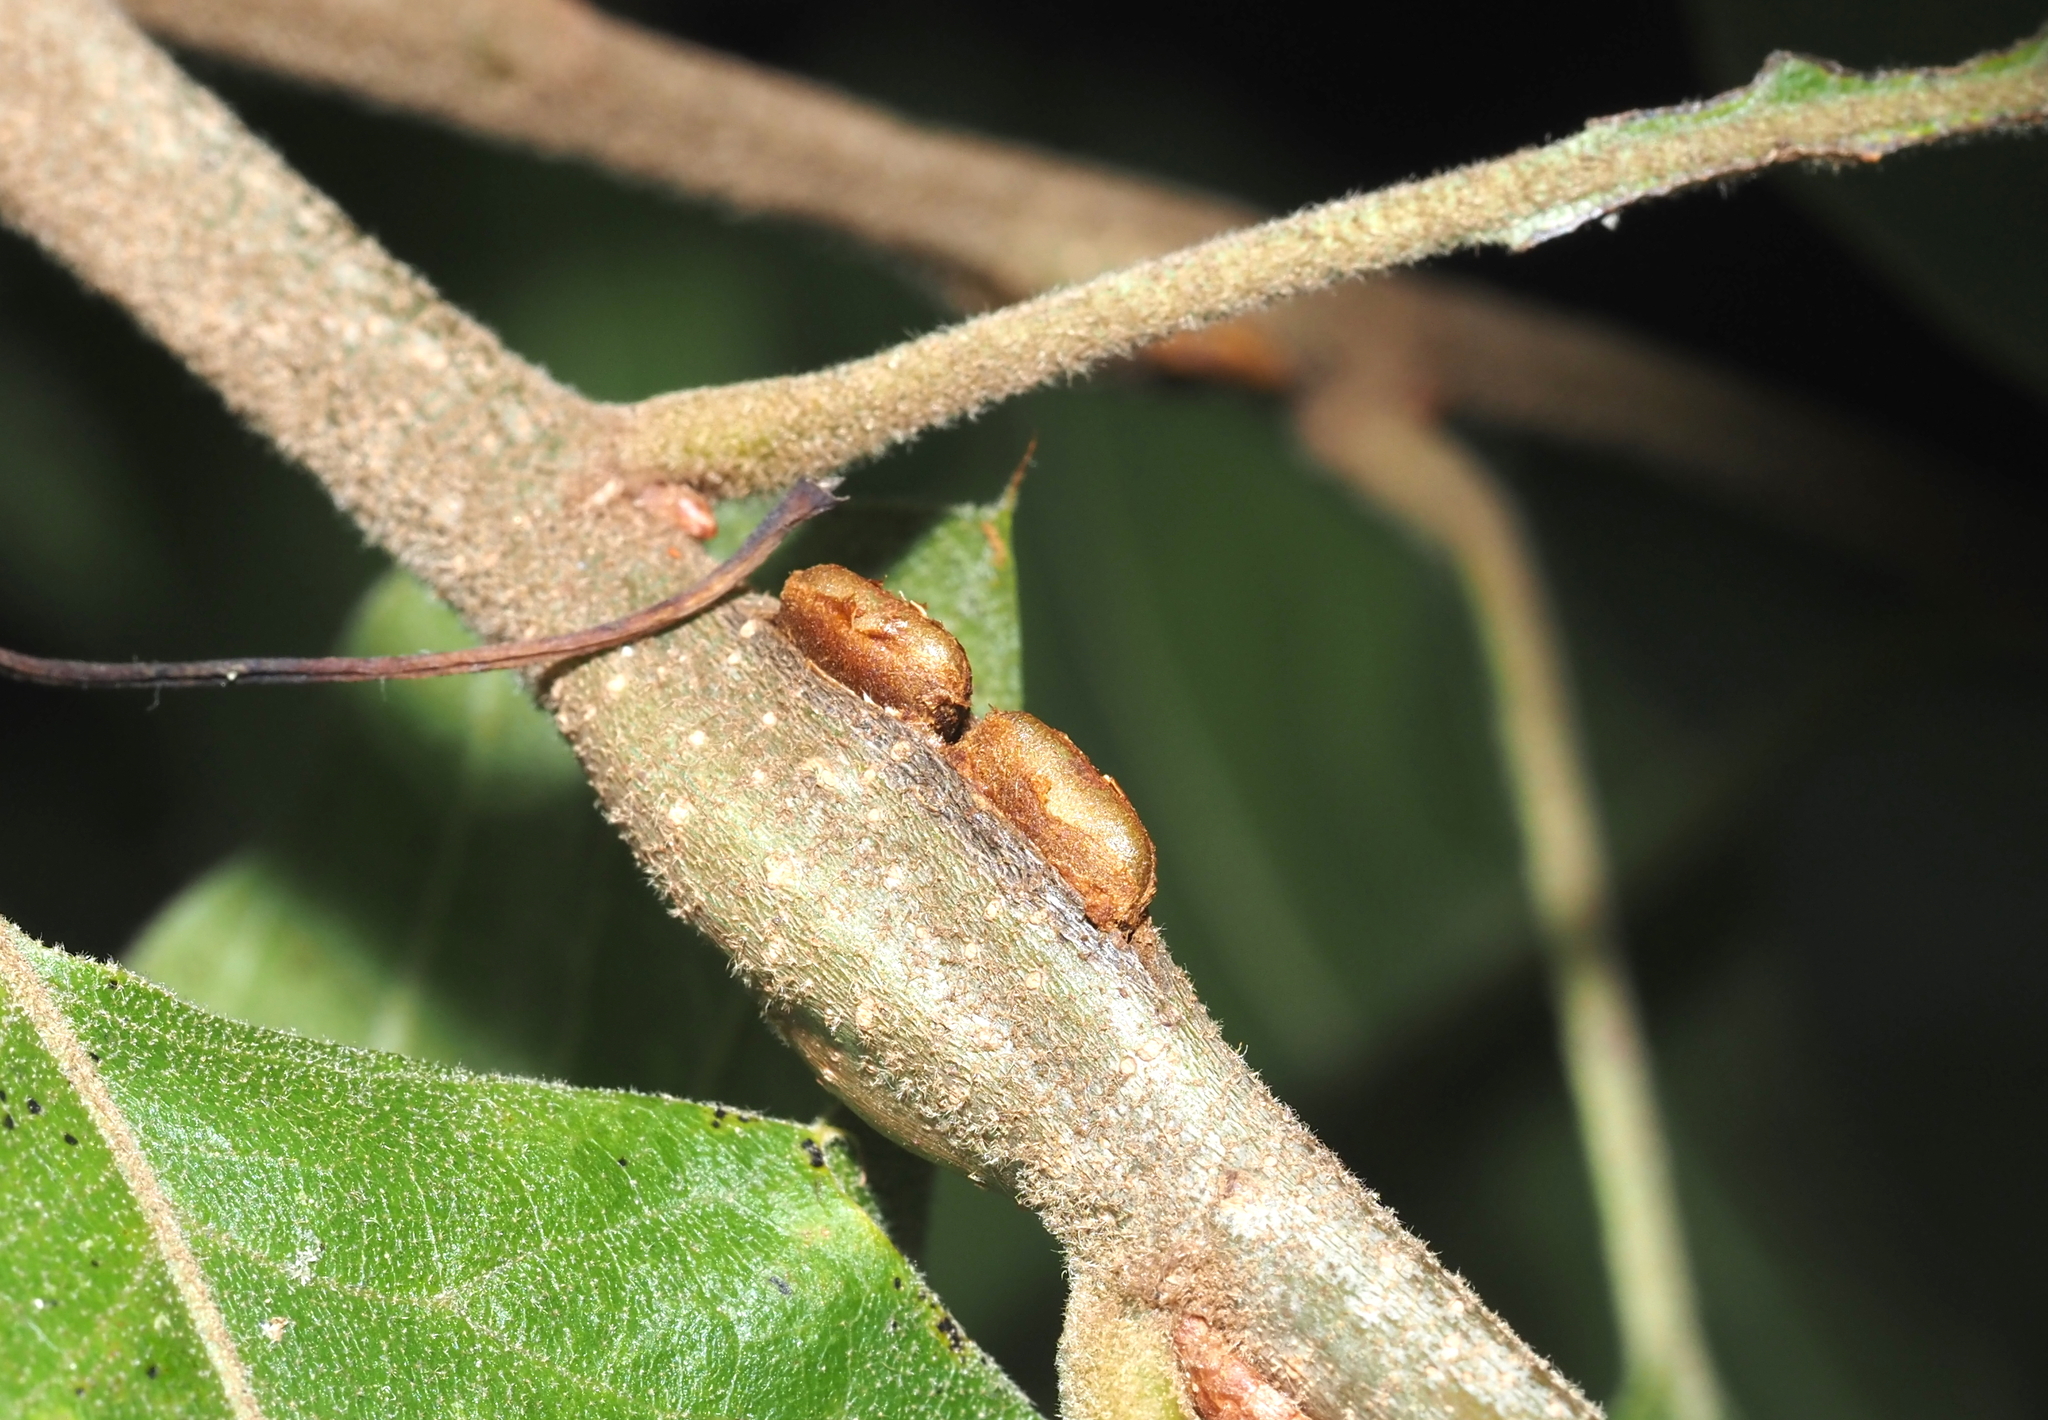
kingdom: Animalia
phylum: Arthropoda
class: Insecta
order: Hymenoptera
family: Cynipidae
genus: Callirhytis
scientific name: Callirhytis
